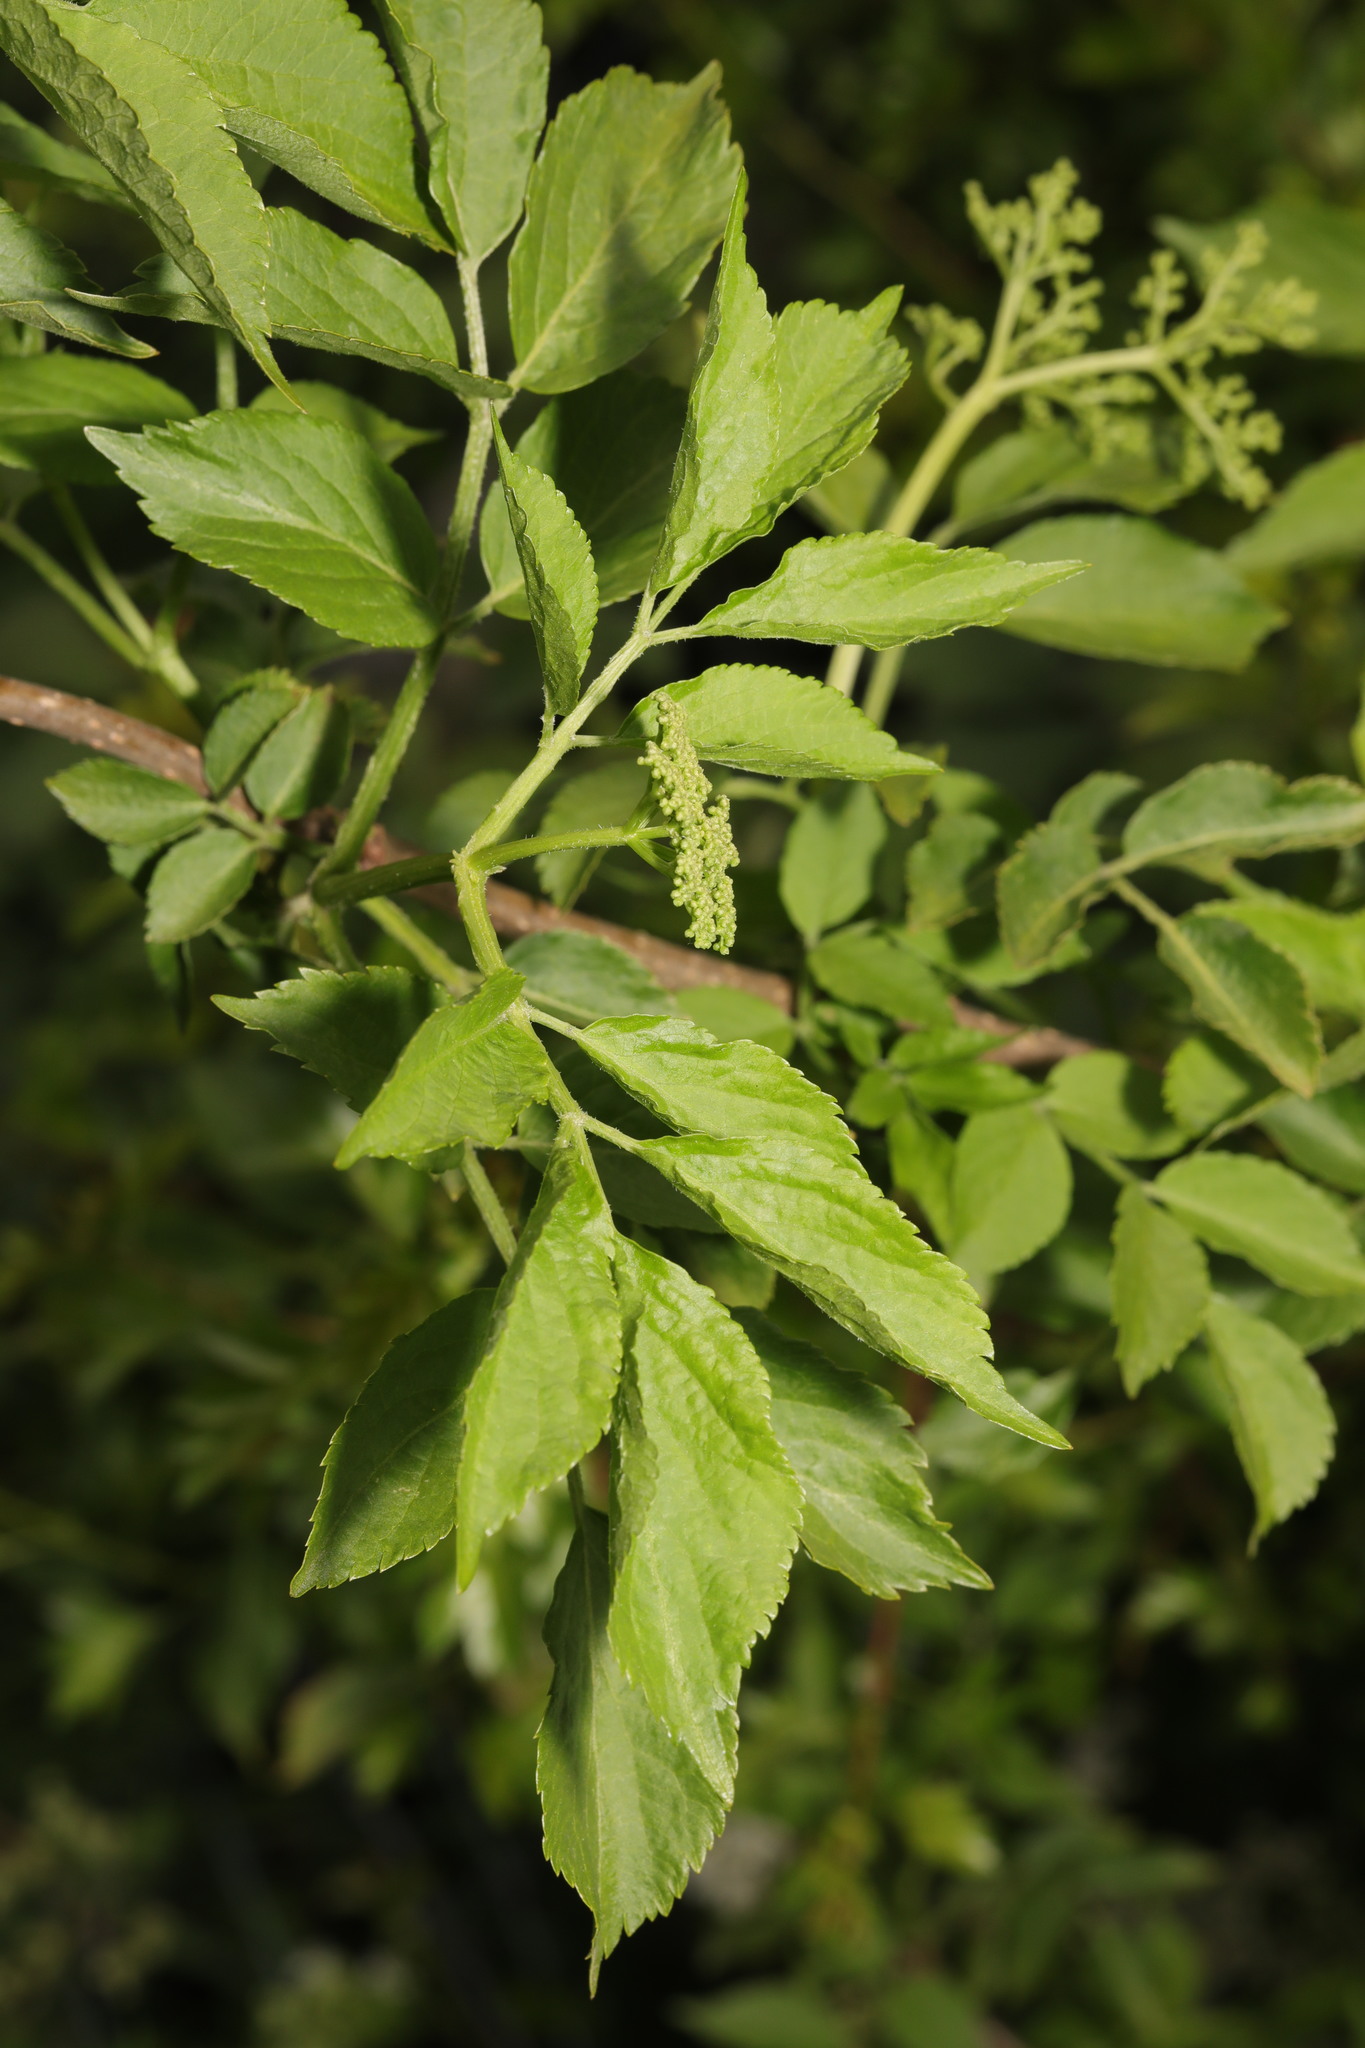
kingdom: Plantae
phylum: Tracheophyta
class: Magnoliopsida
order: Dipsacales
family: Viburnaceae
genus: Sambucus
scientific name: Sambucus nigra
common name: Elder
